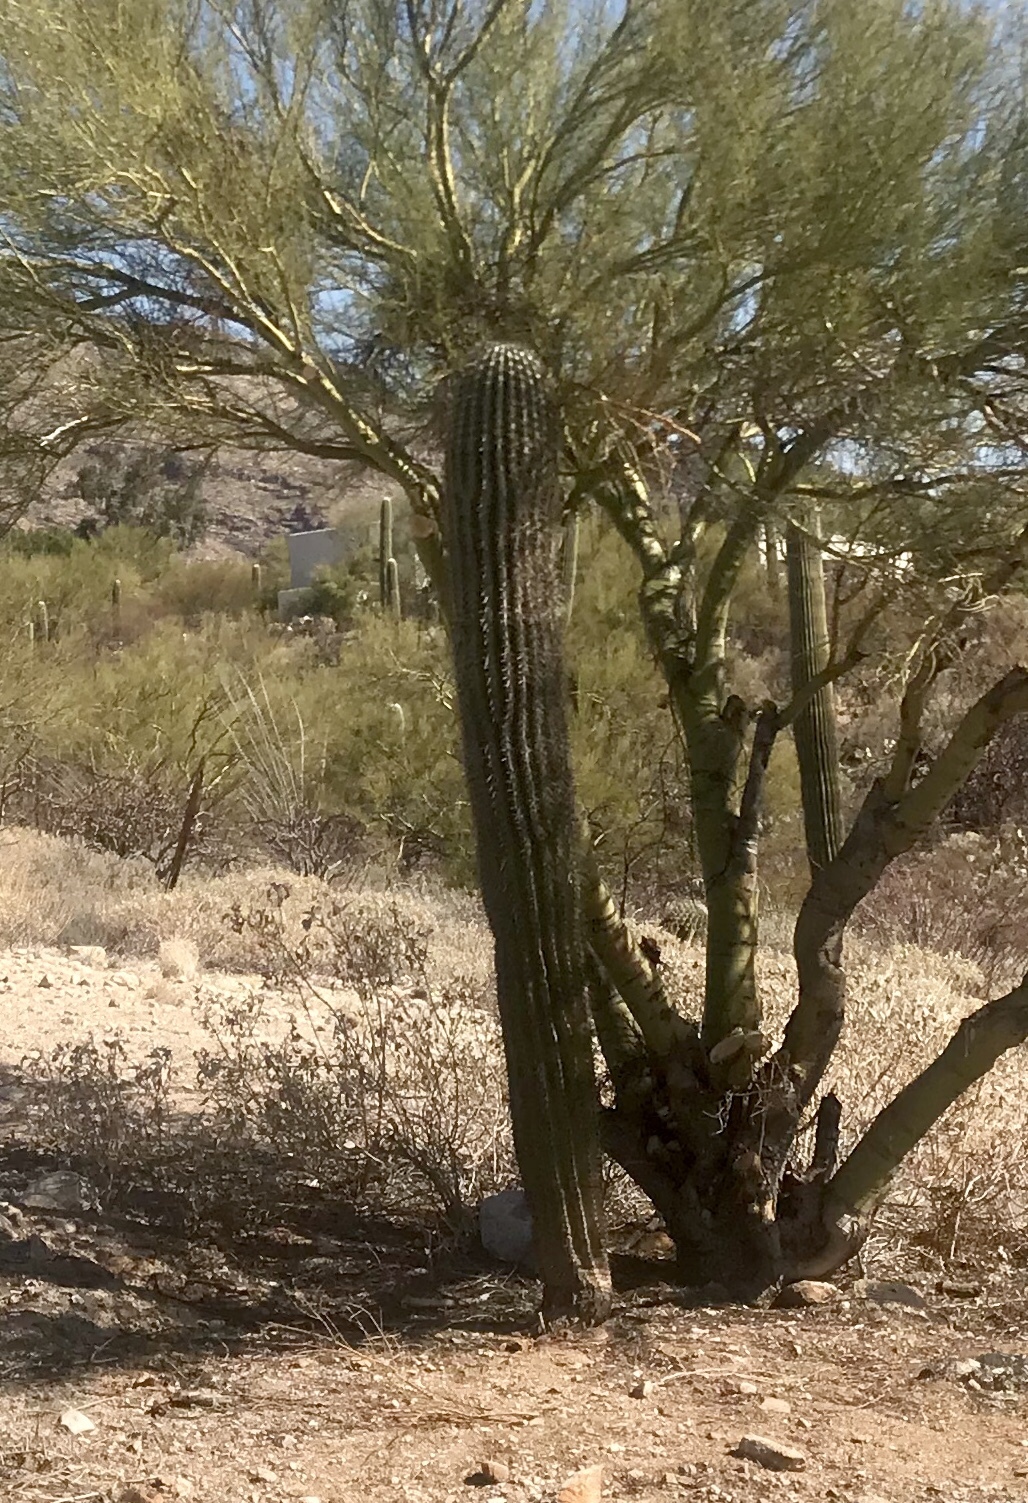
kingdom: Plantae
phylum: Tracheophyta
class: Magnoliopsida
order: Caryophyllales
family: Cactaceae
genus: Carnegiea
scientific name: Carnegiea gigantea
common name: Saguaro
